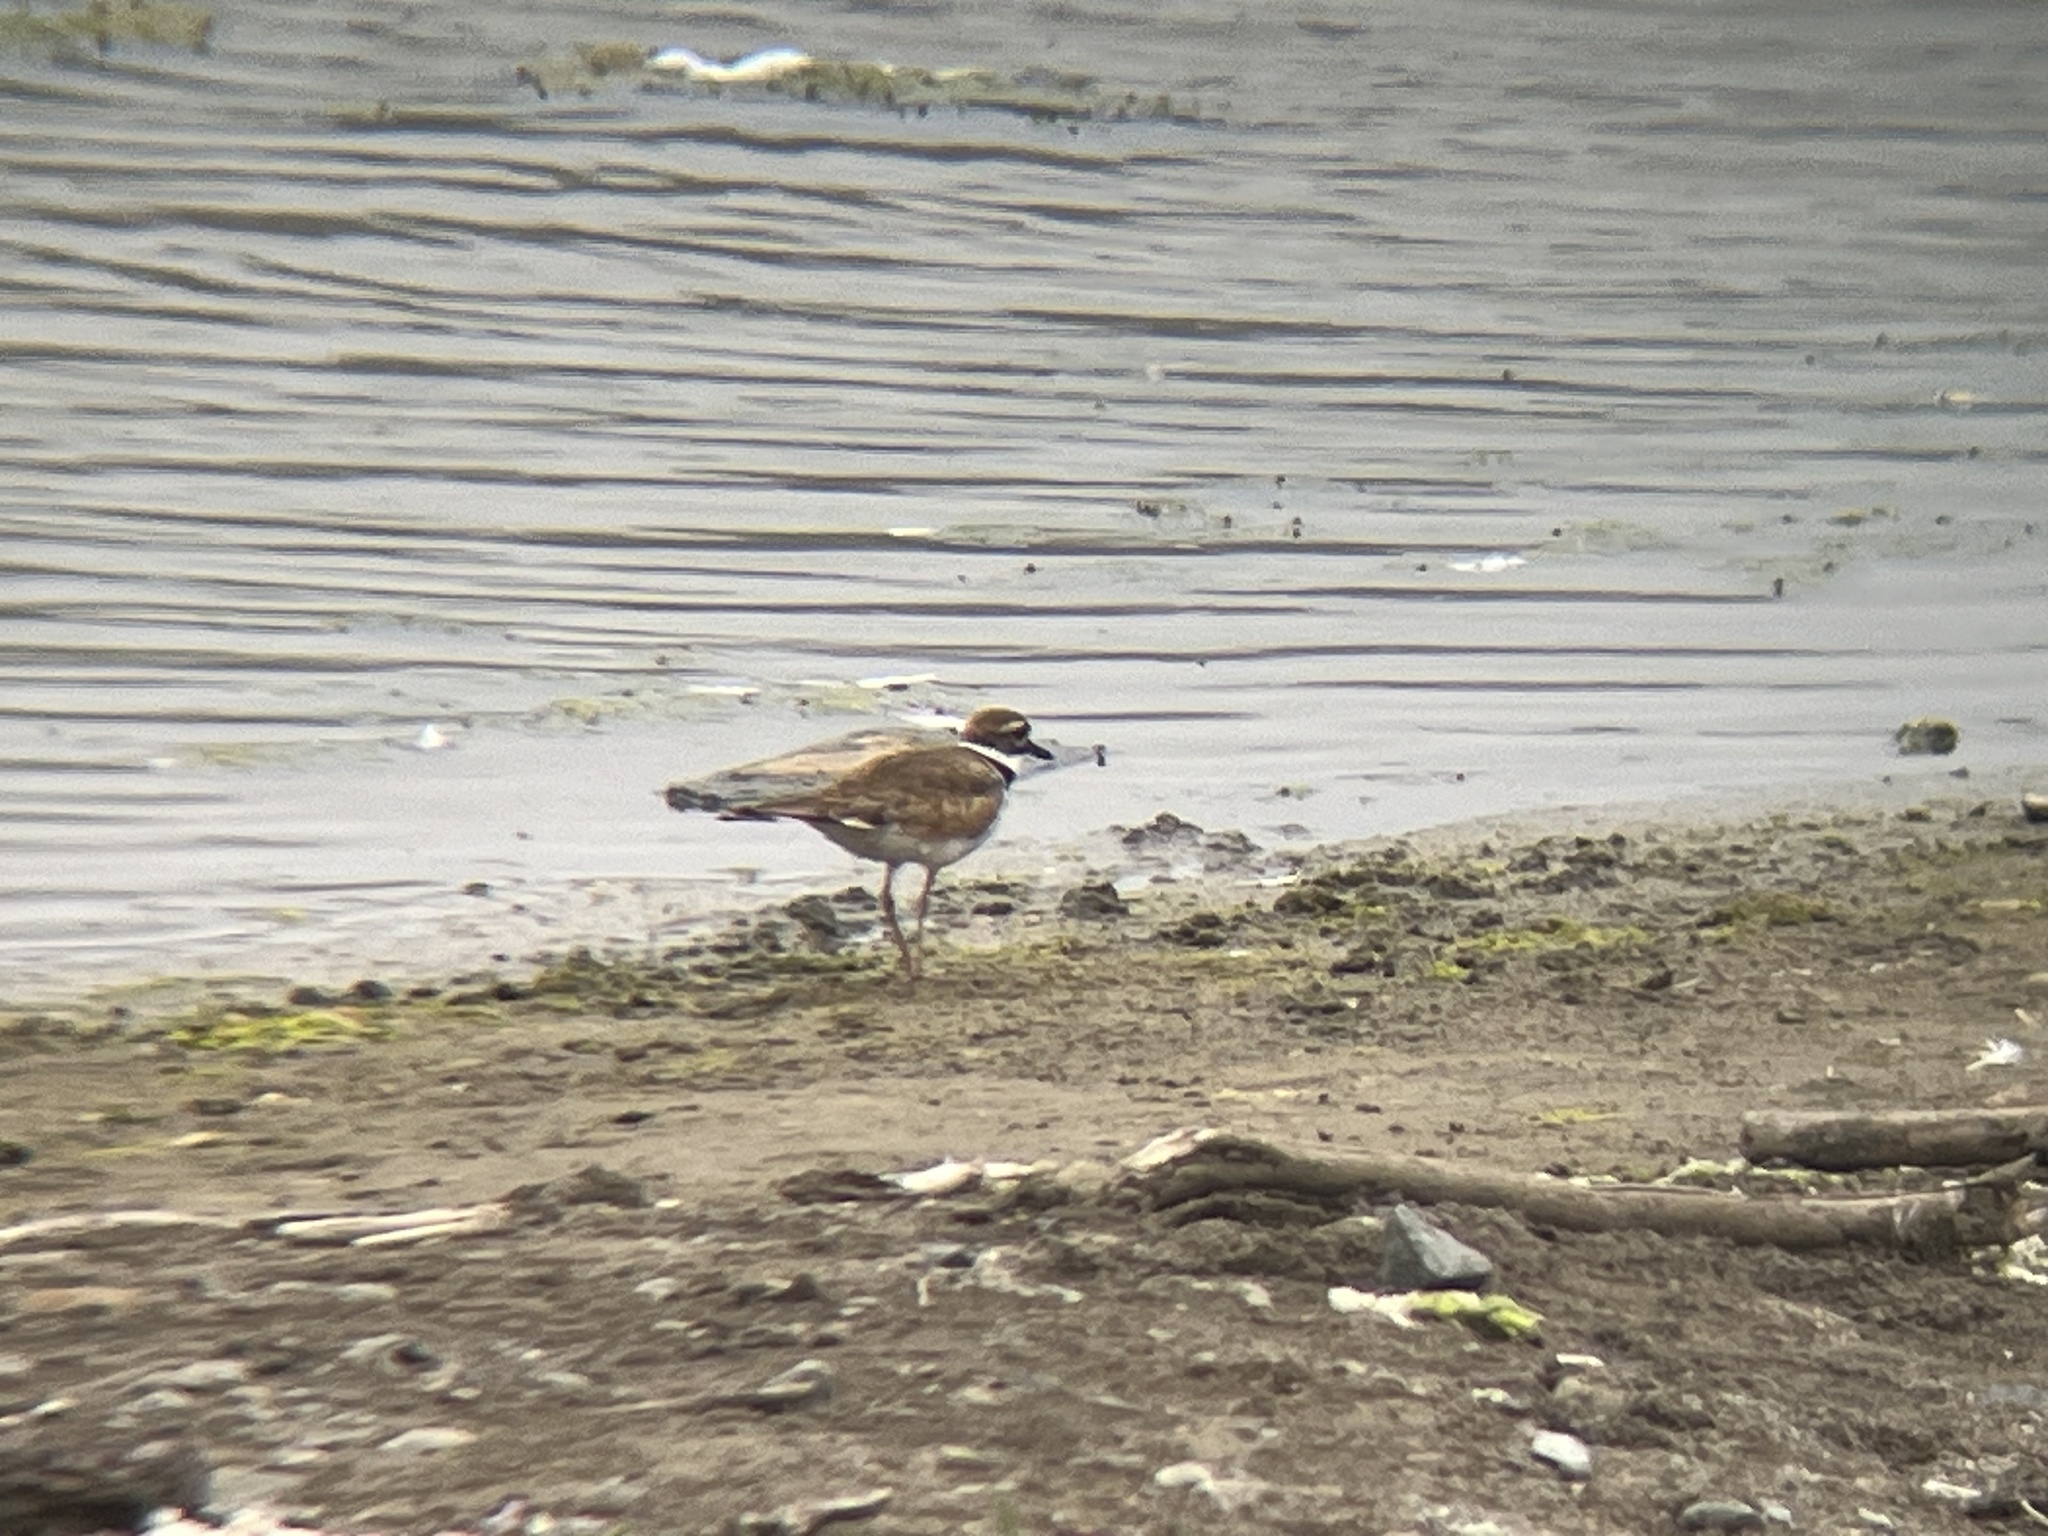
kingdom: Animalia
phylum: Chordata
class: Aves
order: Charadriiformes
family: Charadriidae
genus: Charadrius
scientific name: Charadrius vociferus
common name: Killdeer
